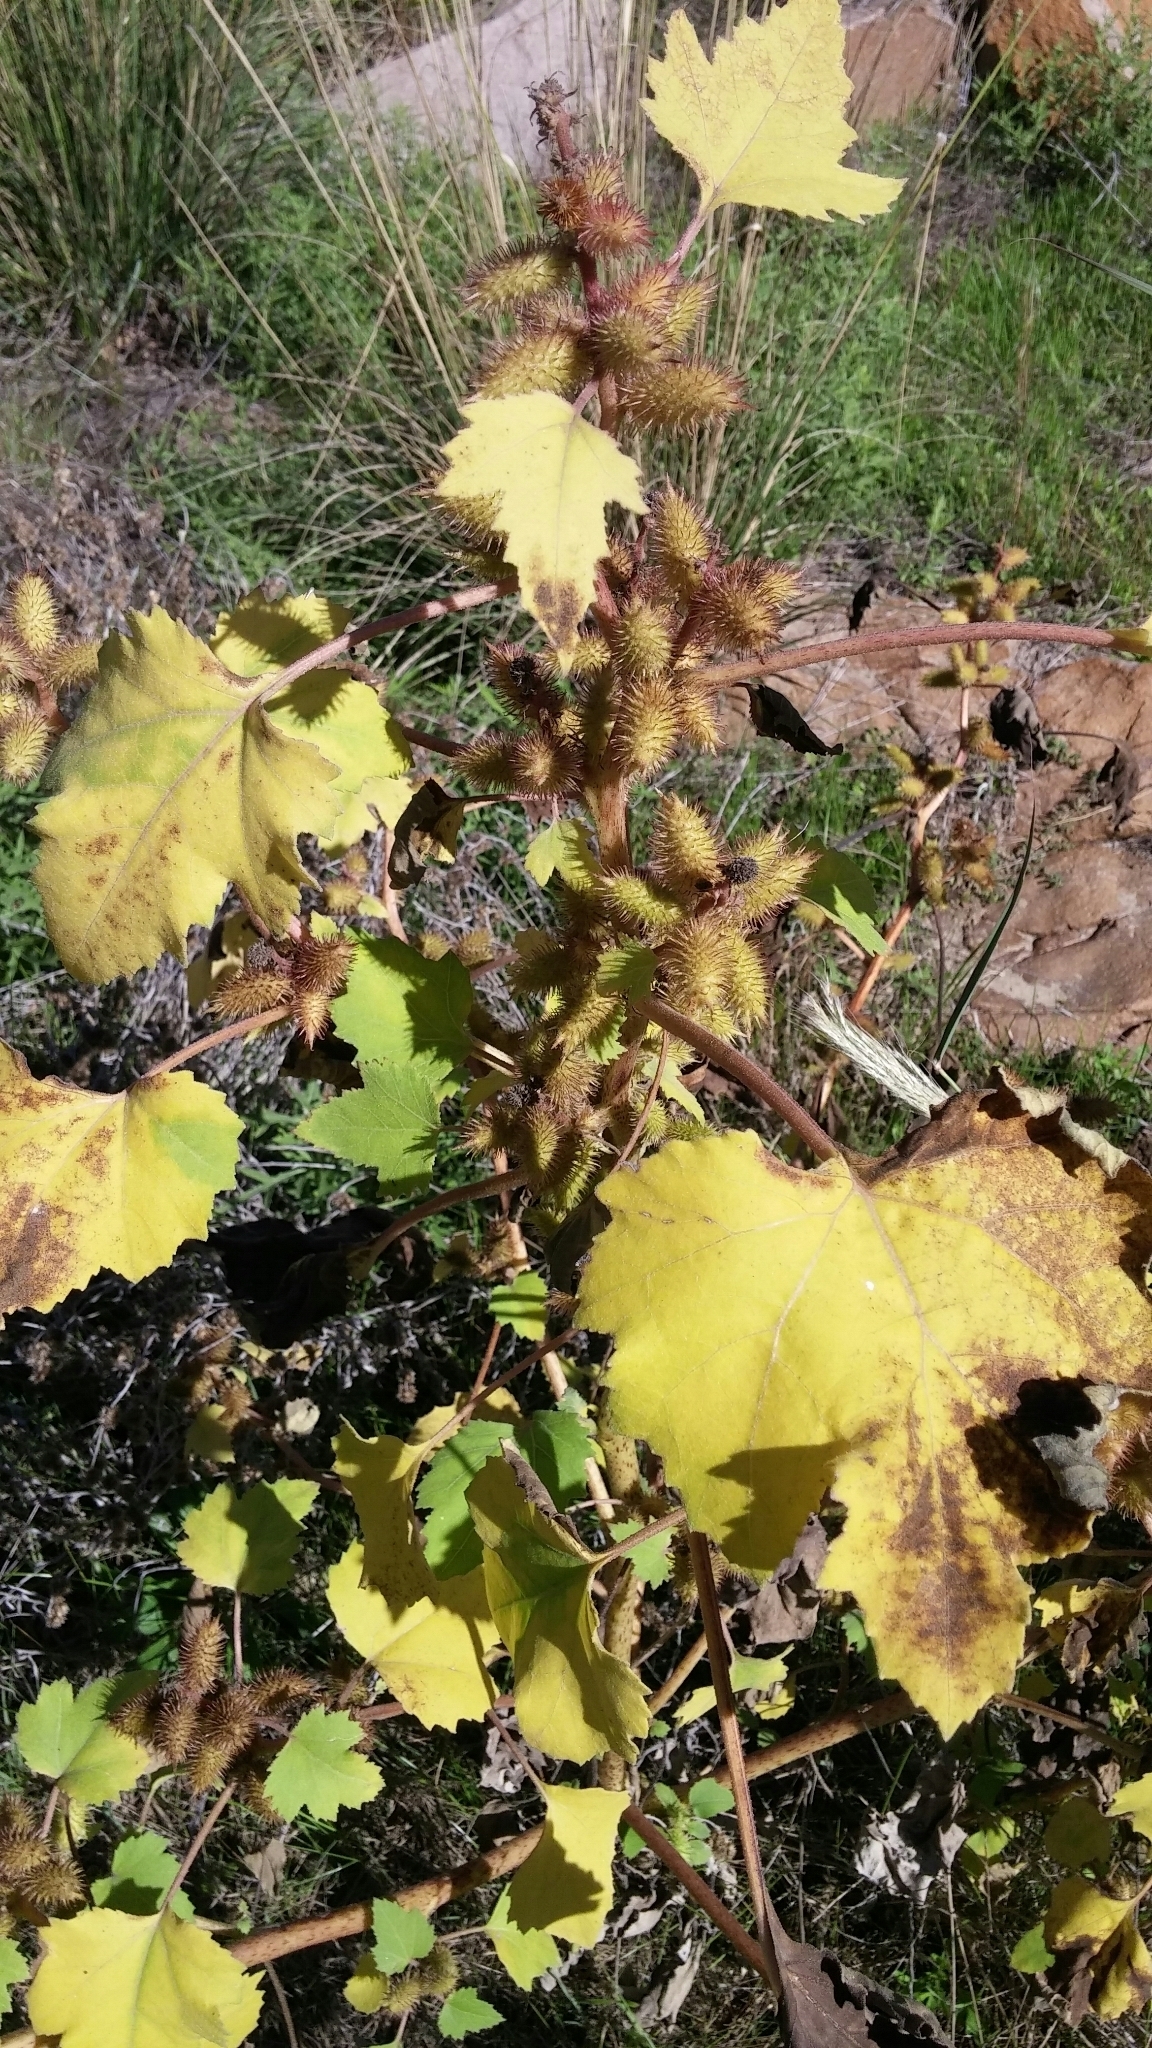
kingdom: Plantae
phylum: Tracheophyta
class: Magnoliopsida
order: Asterales
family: Asteraceae
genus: Xanthium
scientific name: Xanthium strumarium
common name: Rough cocklebur
